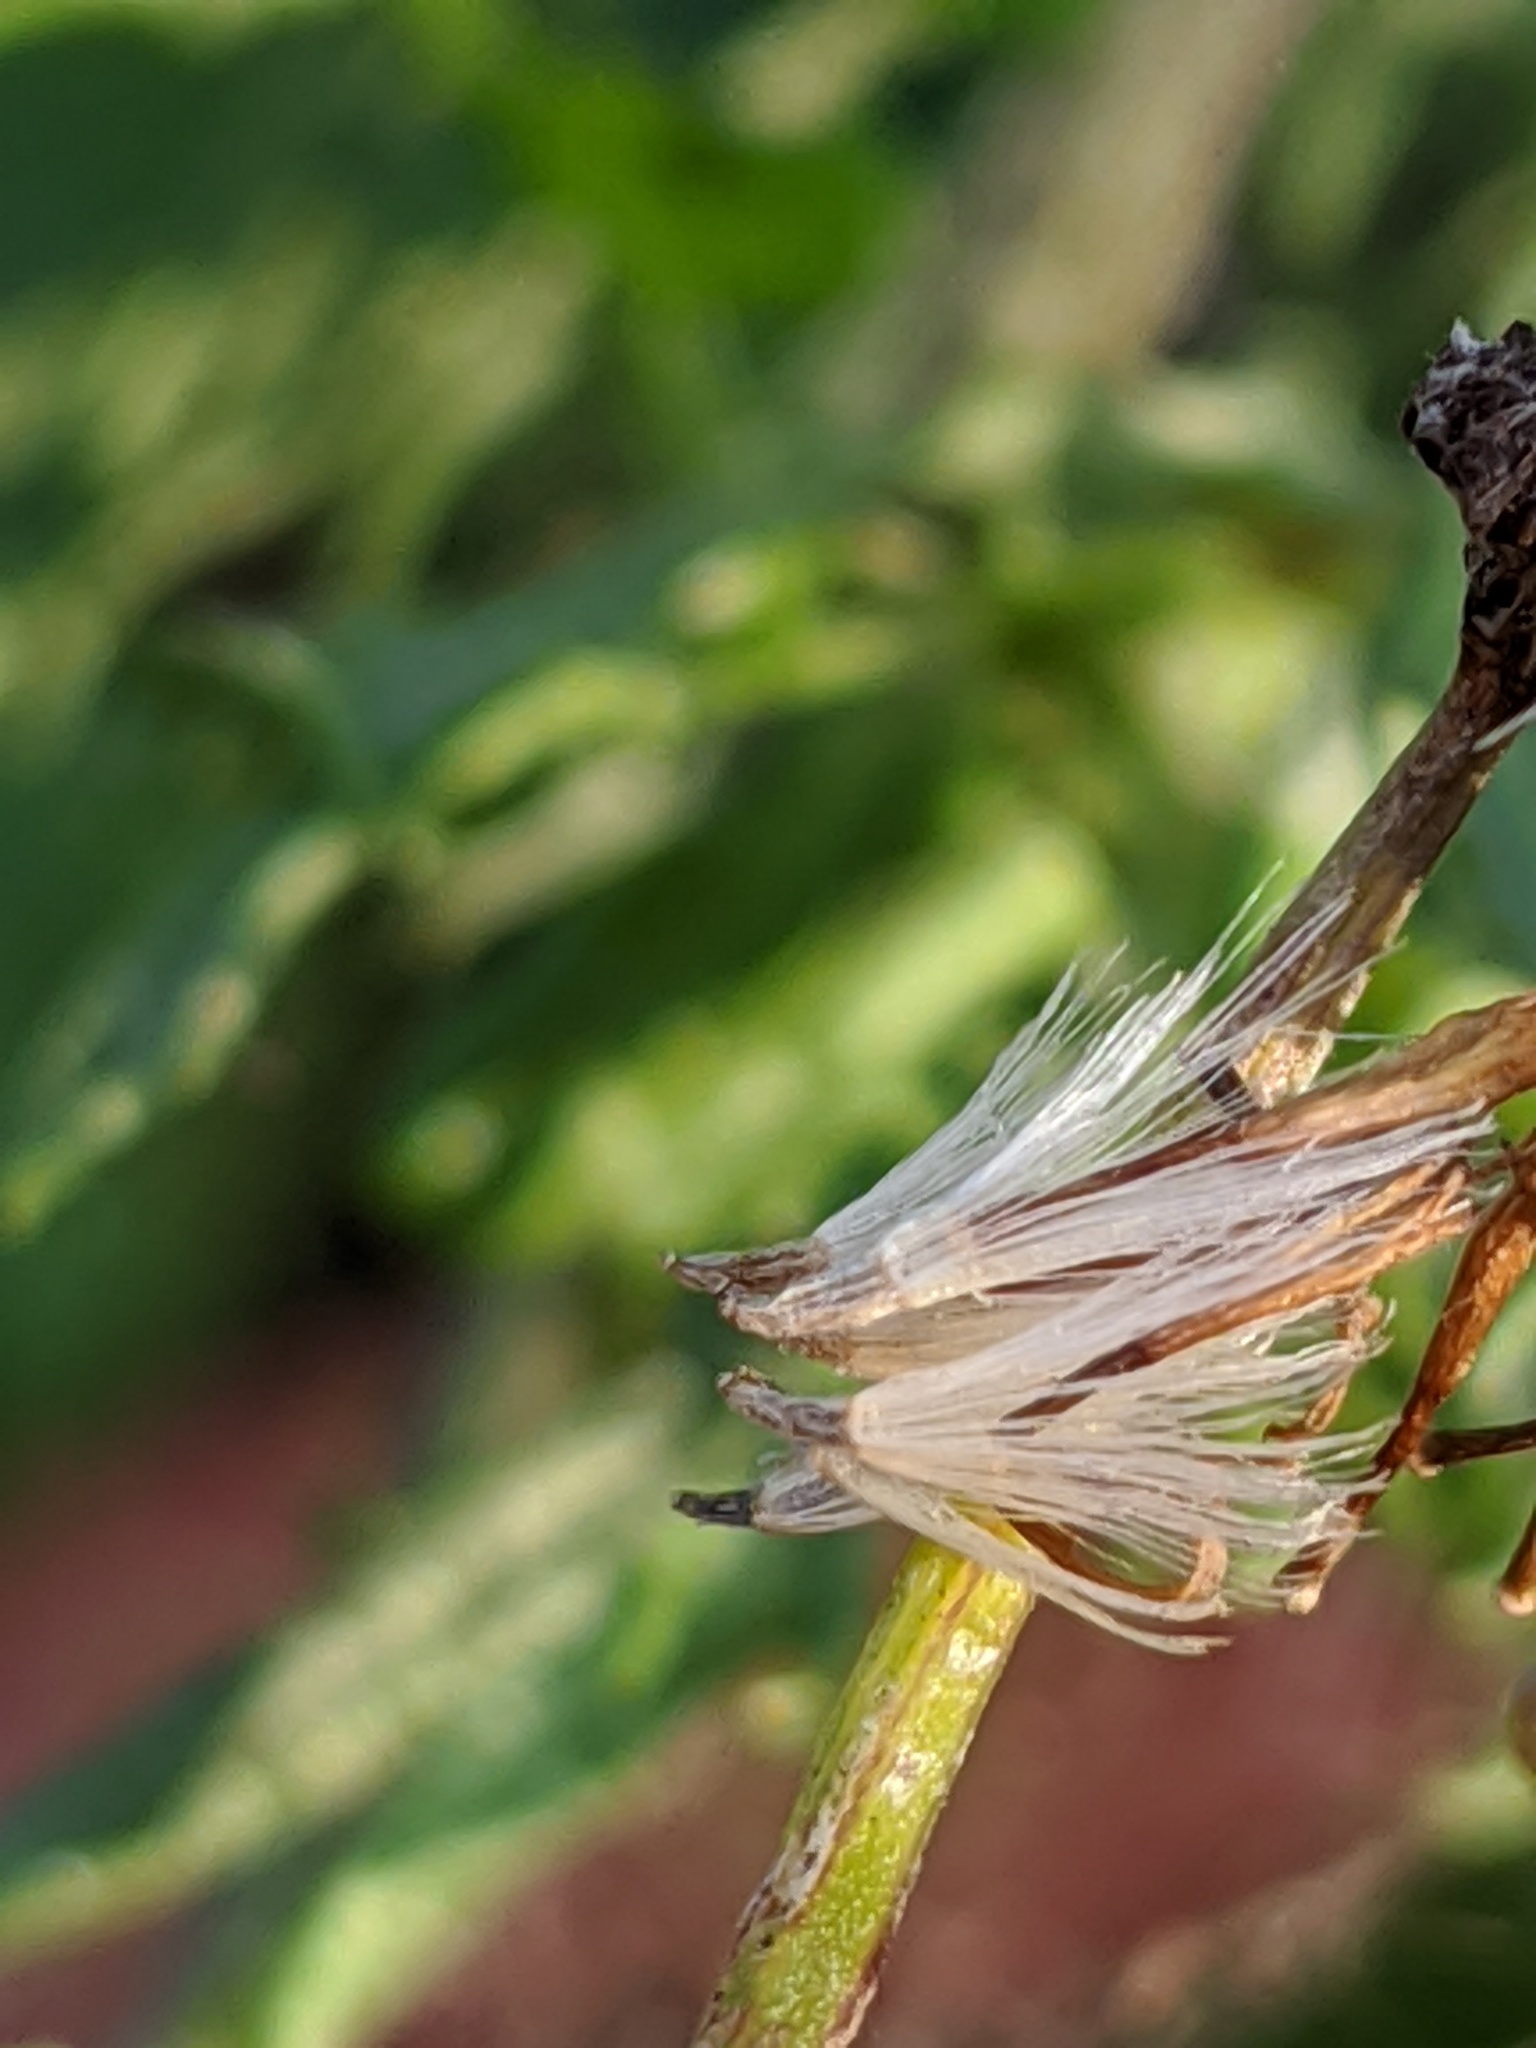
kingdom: Plantae
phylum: Tracheophyta
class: Magnoliopsida
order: Asterales
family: Asteraceae
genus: Jacobaea
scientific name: Jacobaea erucifolia
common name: Hoary ragwort
